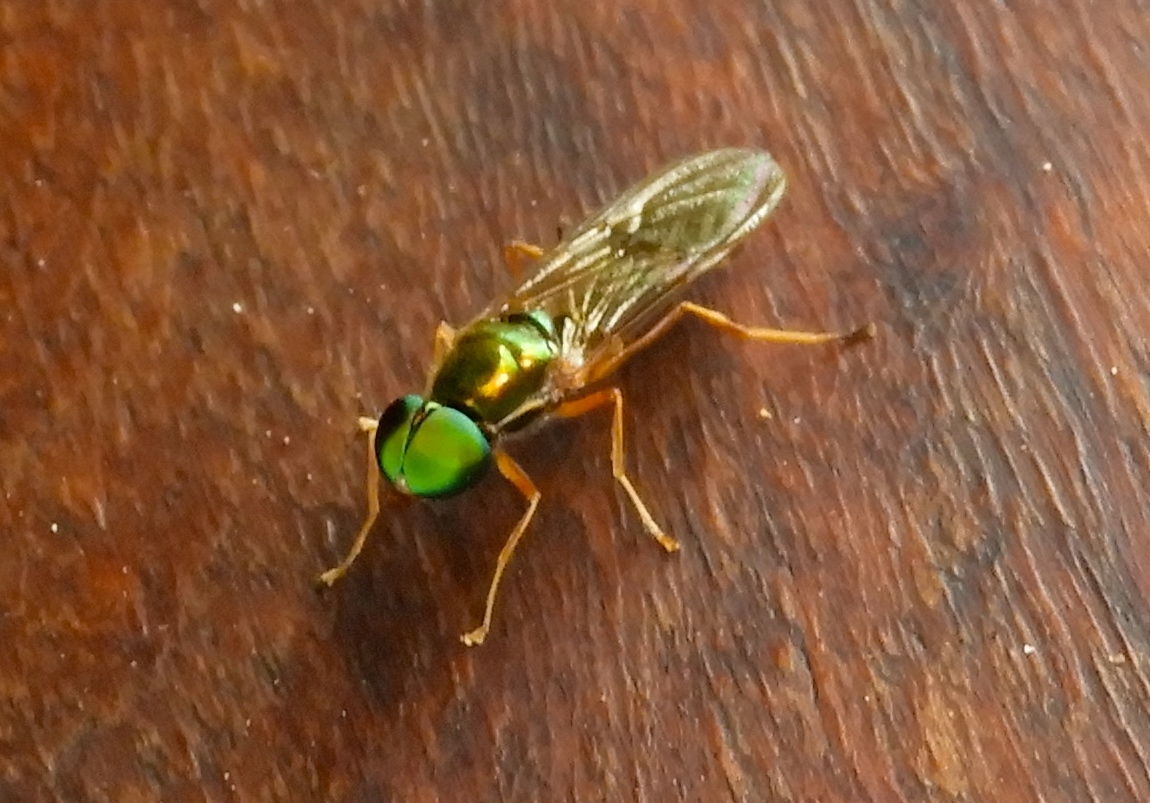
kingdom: Animalia
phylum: Arthropoda
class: Insecta
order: Diptera
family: Stratiomyidae
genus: Sargus
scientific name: Sargus
